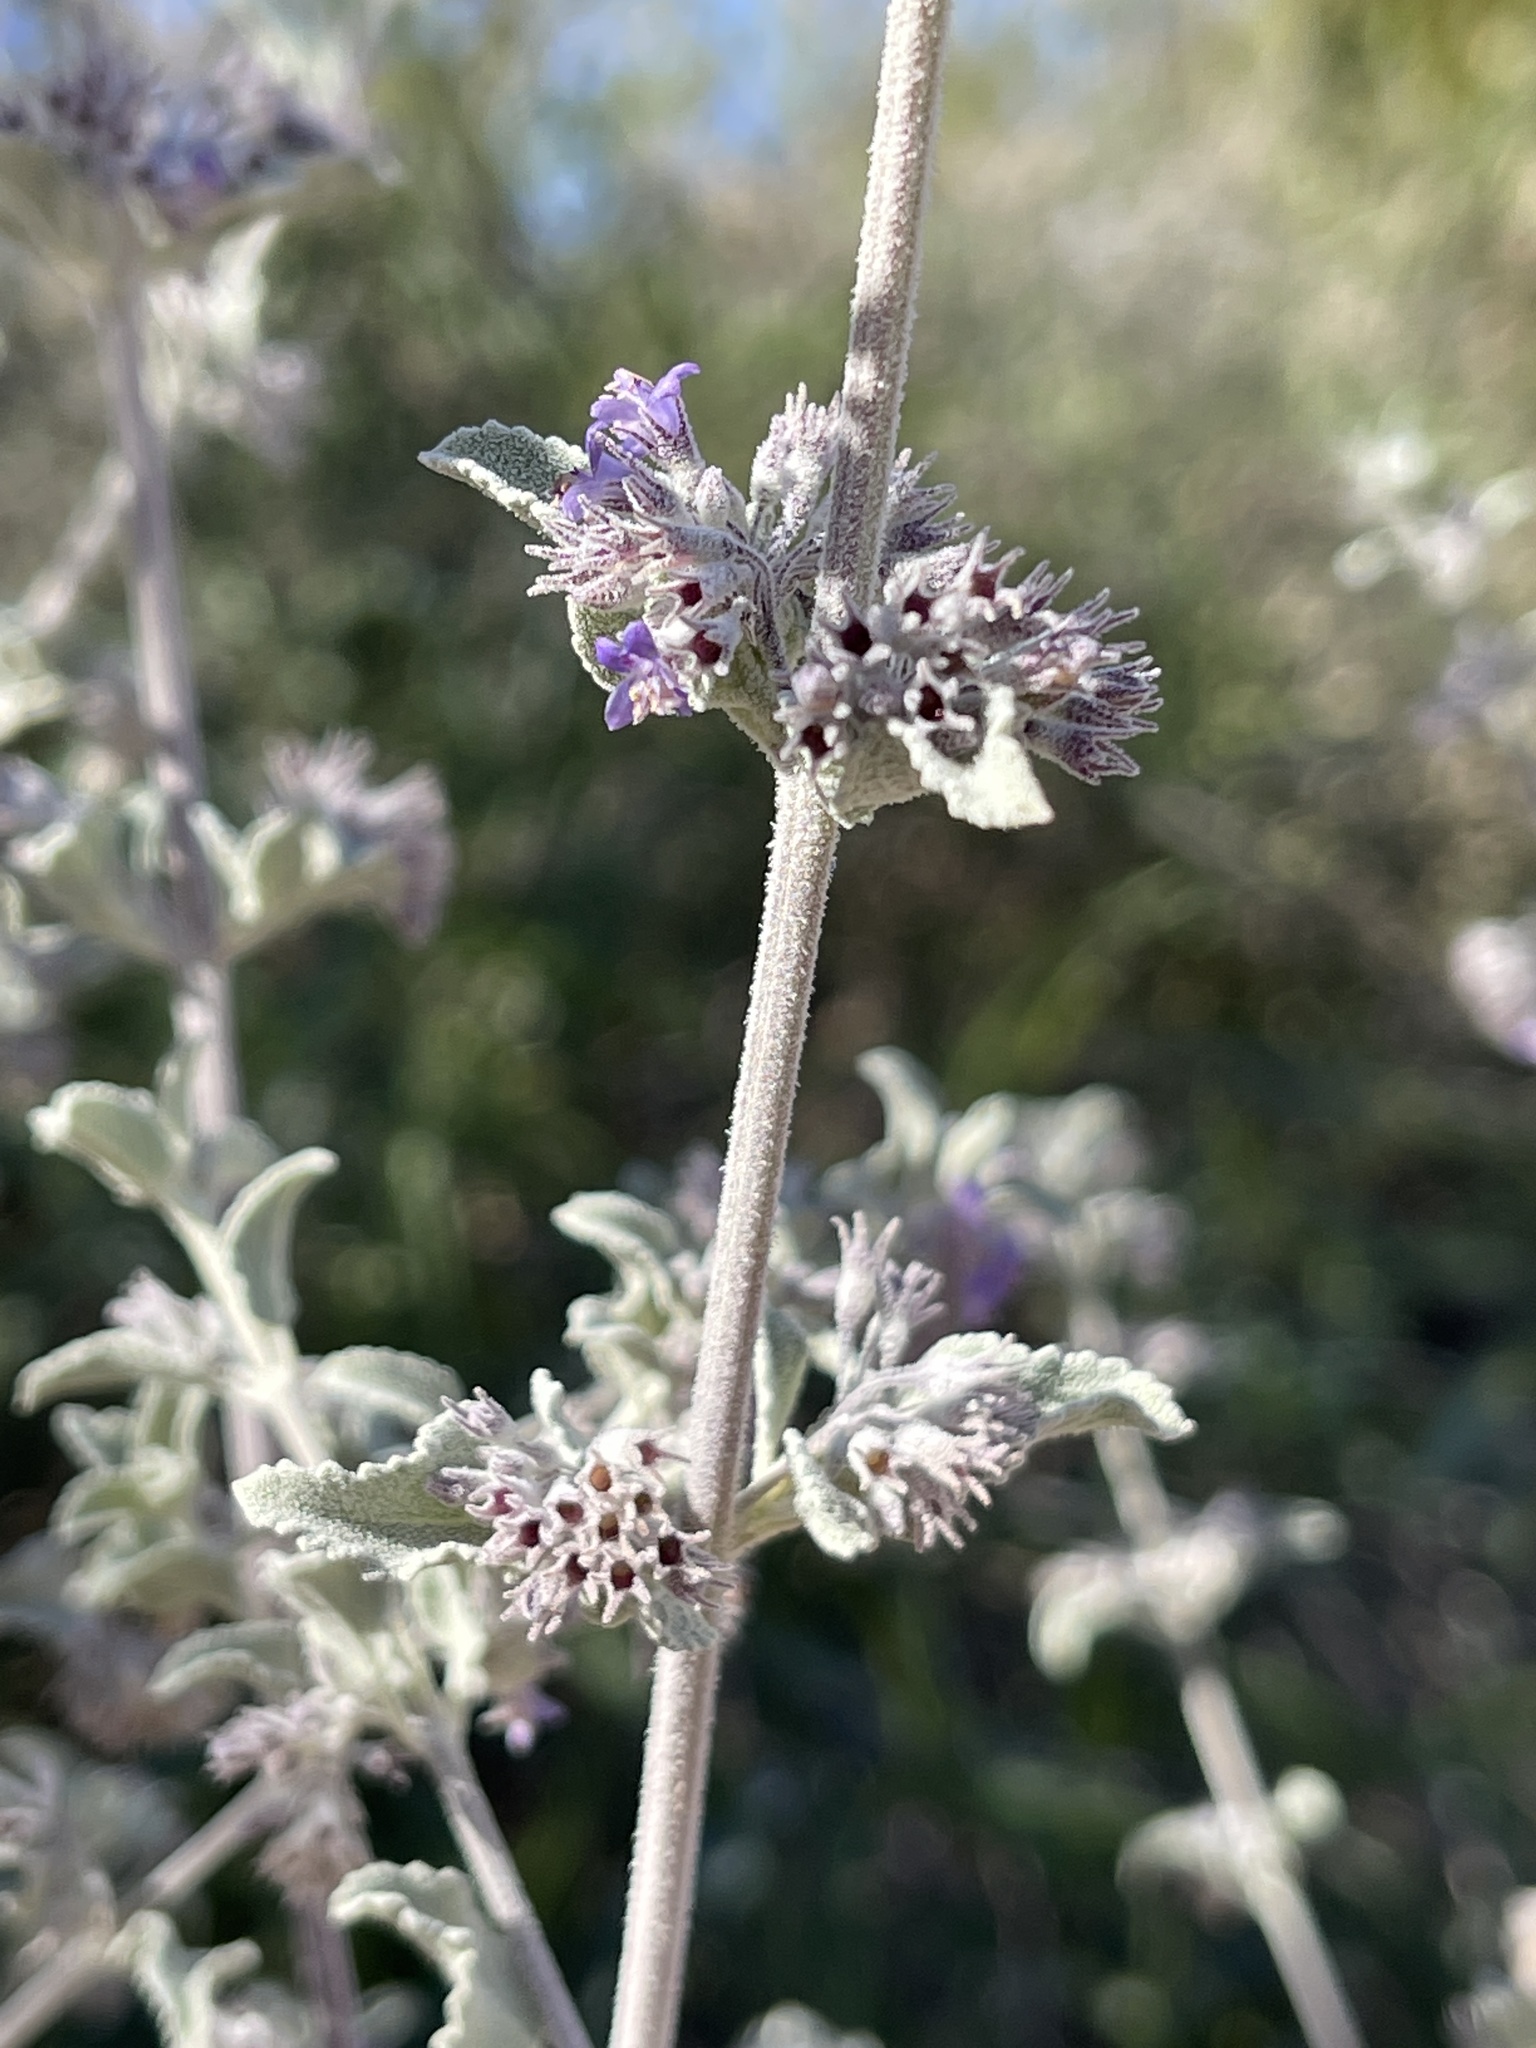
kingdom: Plantae
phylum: Tracheophyta
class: Magnoliopsida
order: Lamiales
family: Lamiaceae
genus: Condea
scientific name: Condea emoryi
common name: Chia
